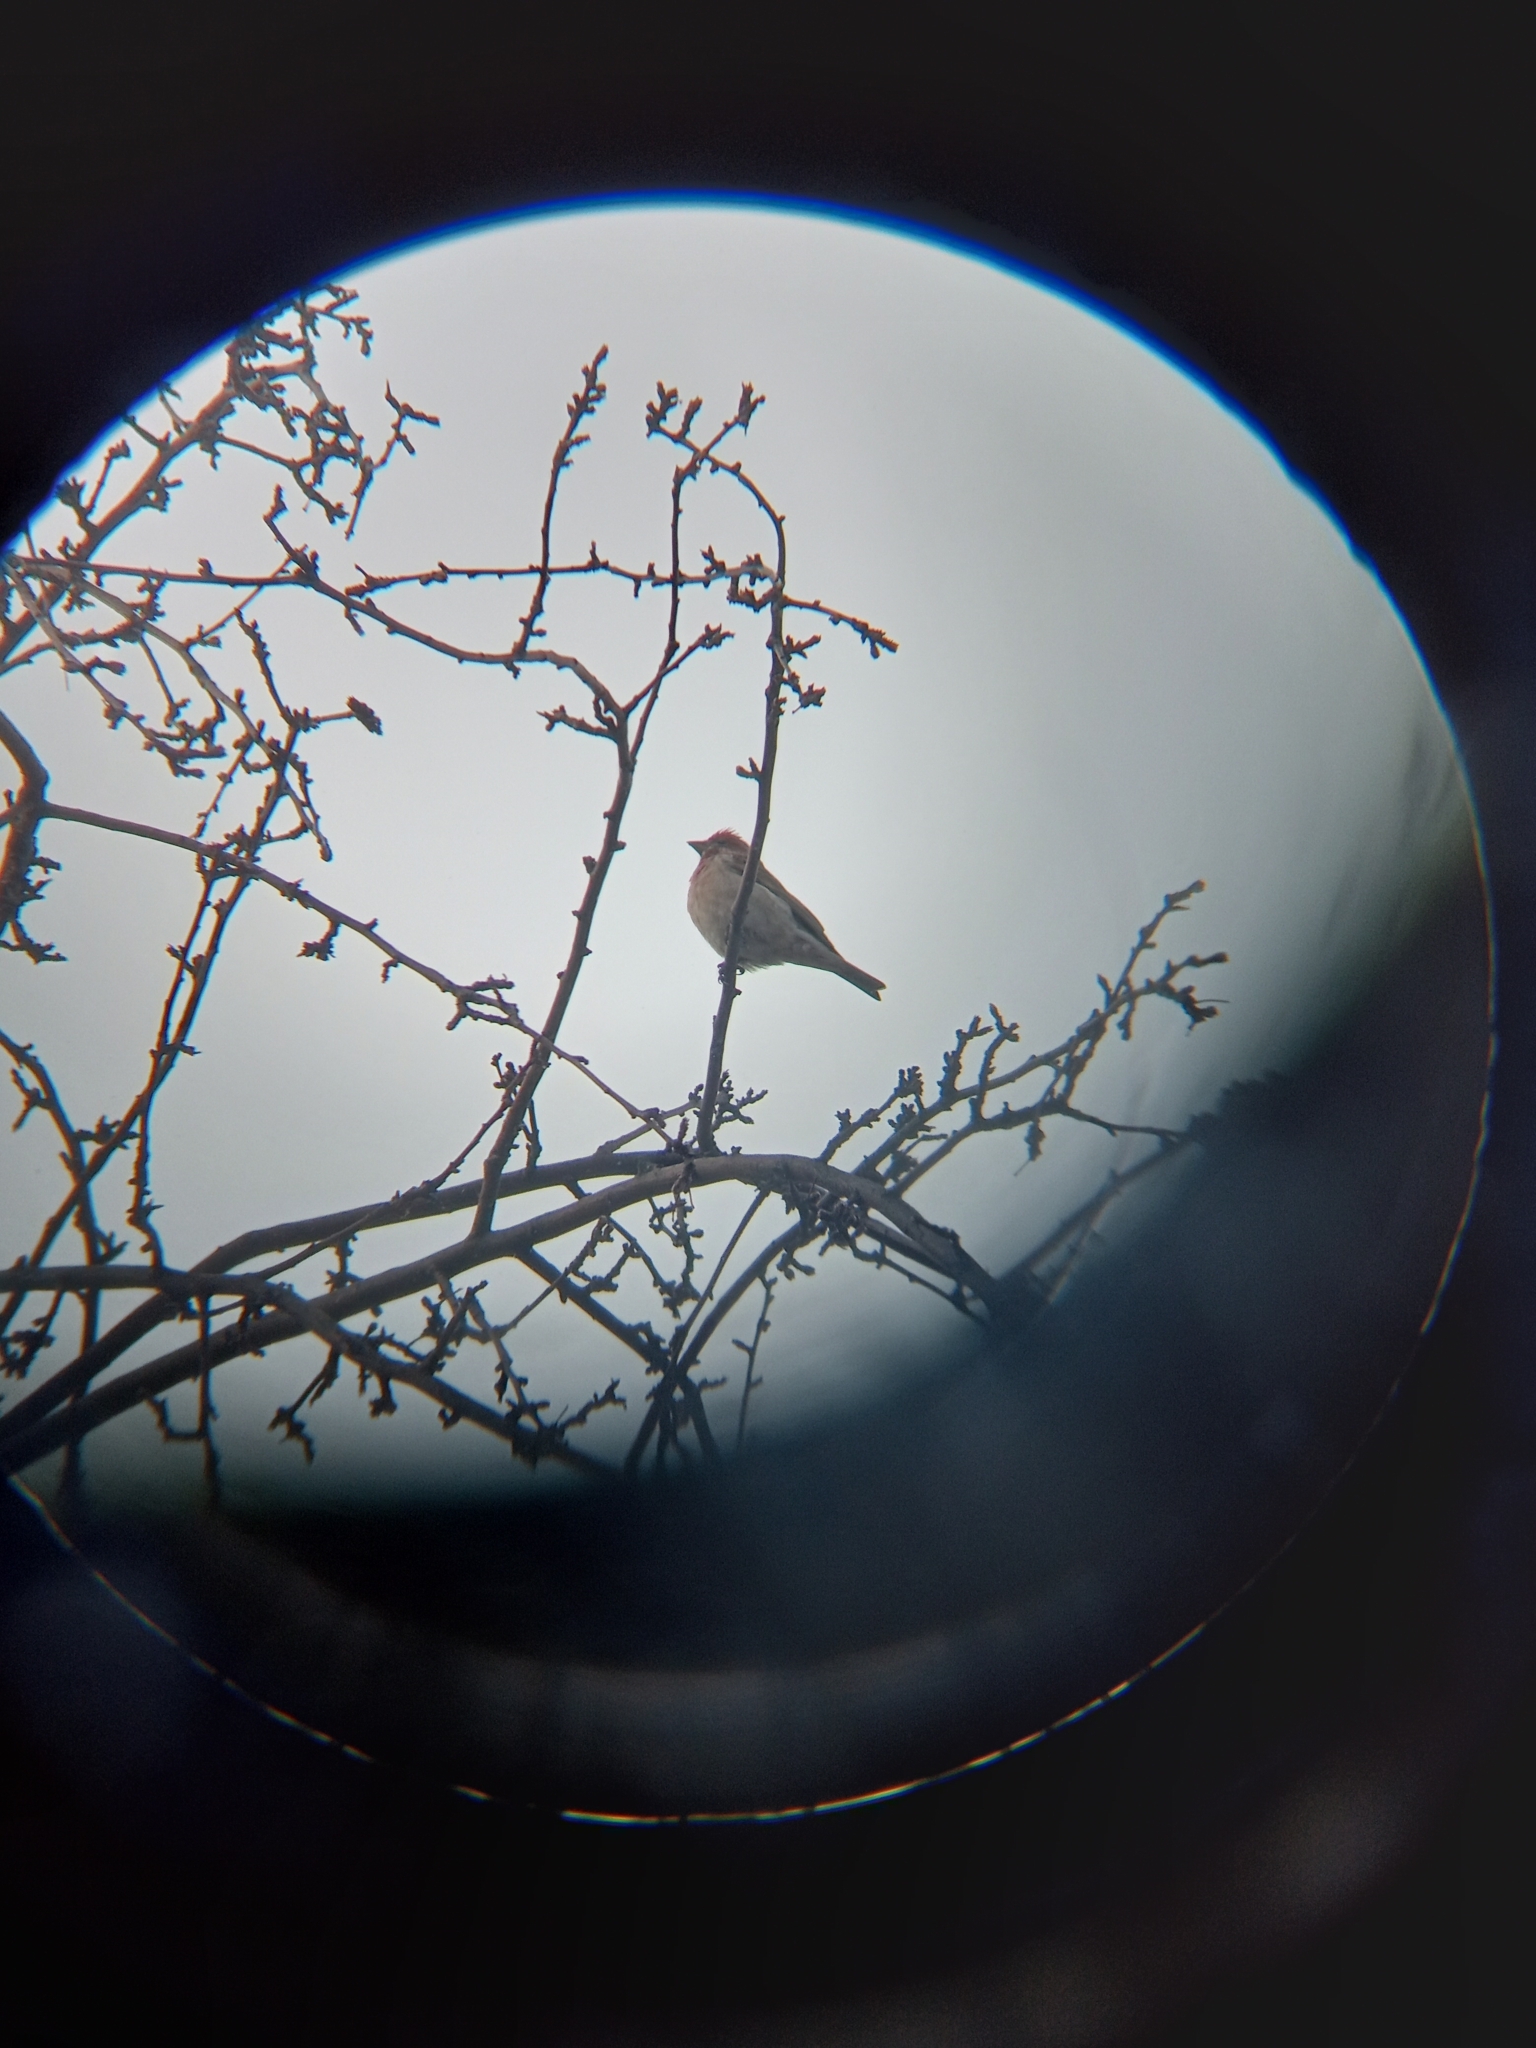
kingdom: Animalia
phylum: Chordata
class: Aves
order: Passeriformes
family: Fringillidae
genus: Haemorhous
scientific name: Haemorhous cassinii
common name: Cassin's finch
